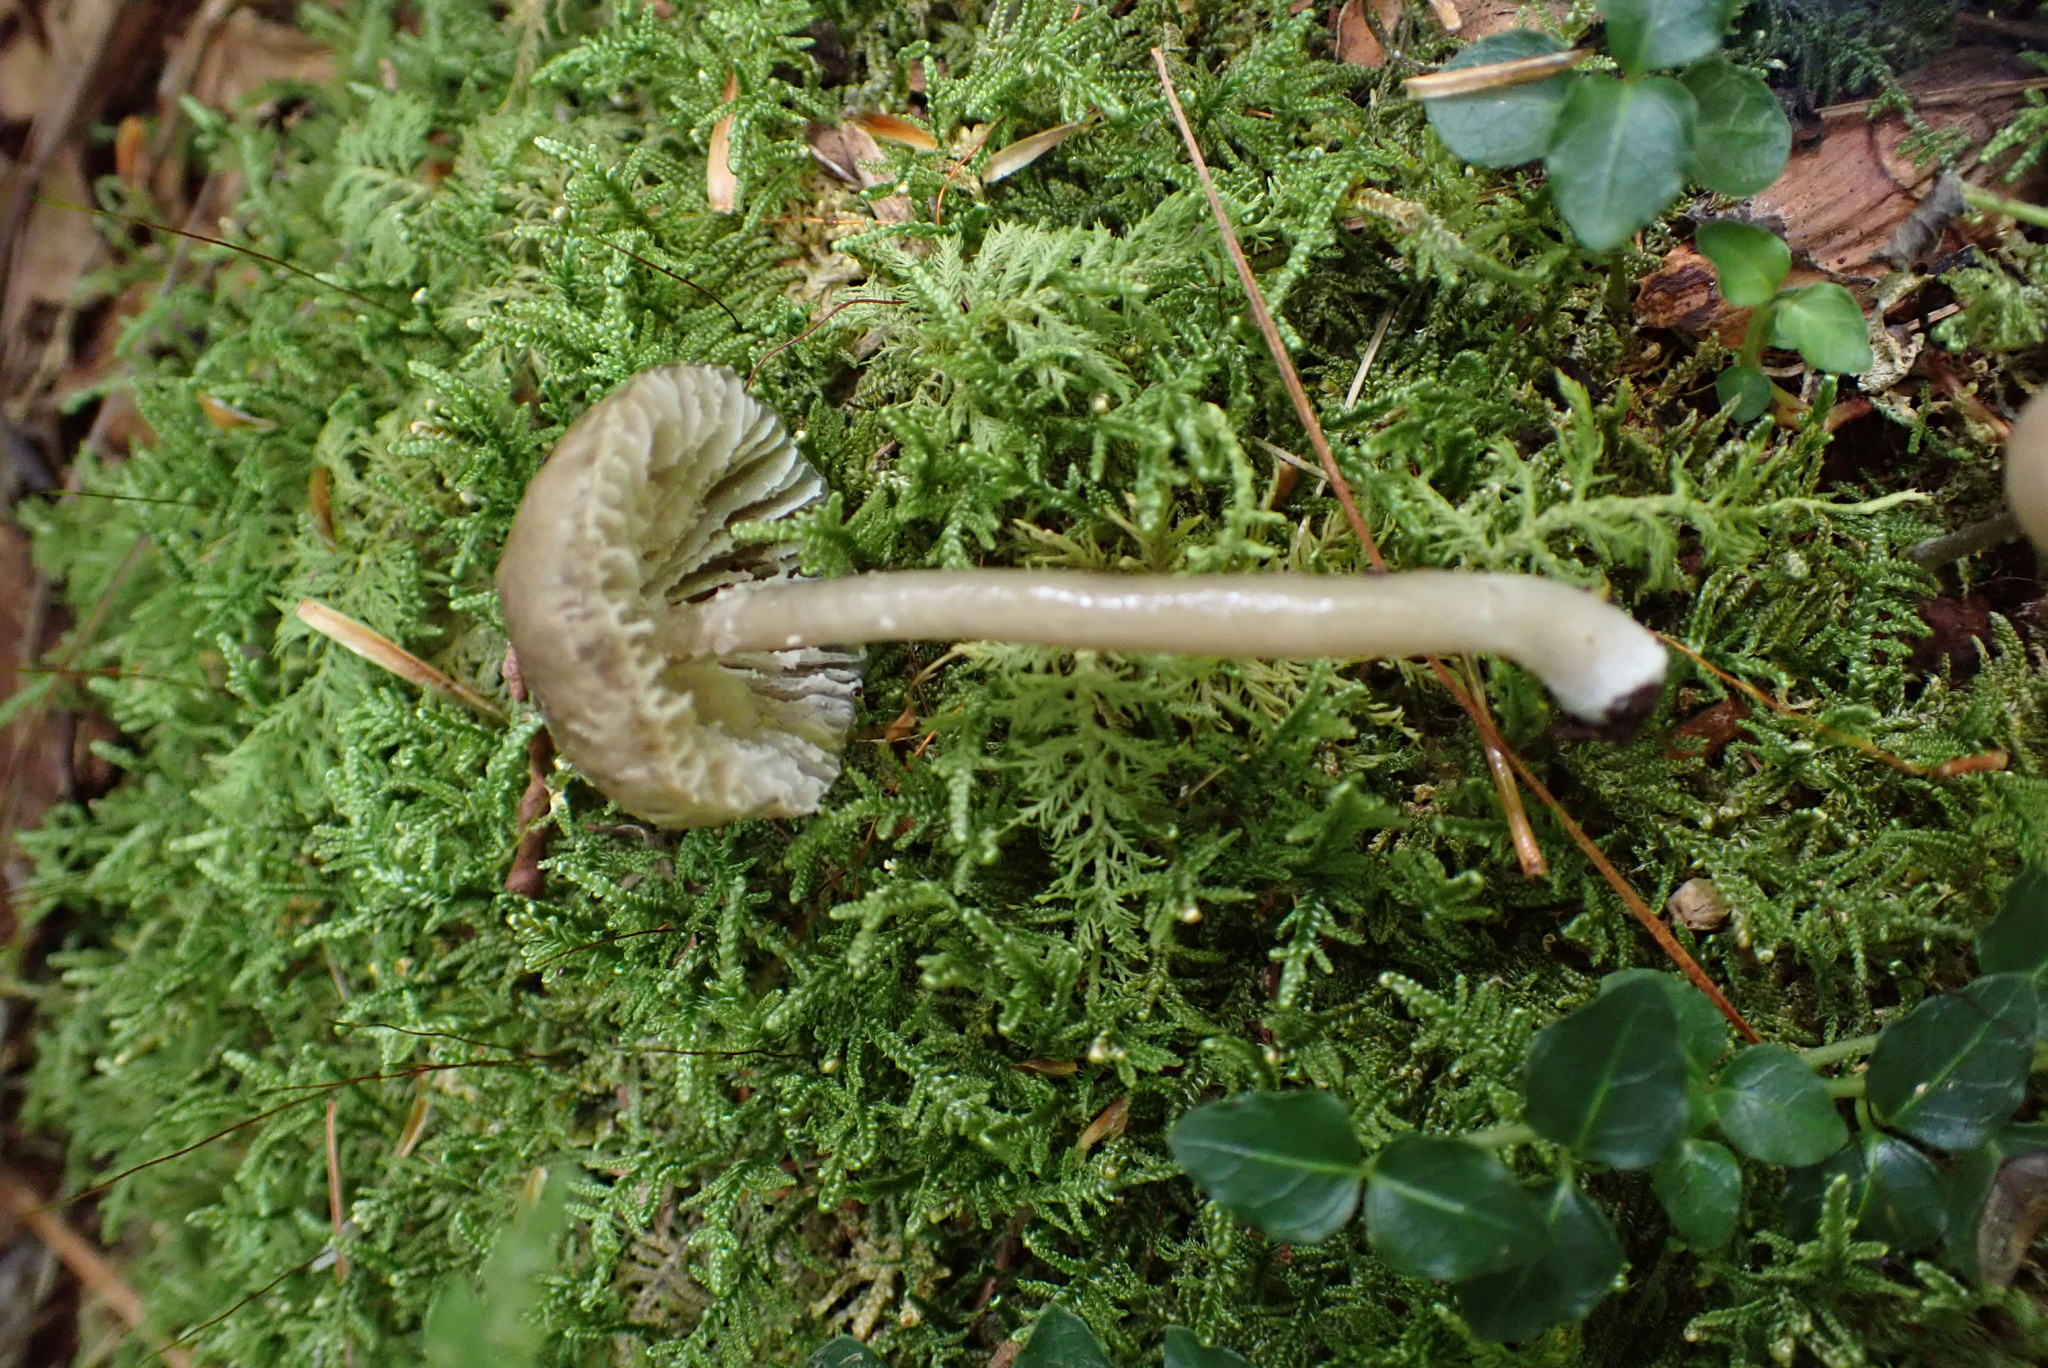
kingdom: Fungi
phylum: Basidiomycota
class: Agaricomycetes
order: Agaricales
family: Hygrophoraceae
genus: Gliophorus
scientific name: Gliophorus irrigatus
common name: Slimy waxcap
